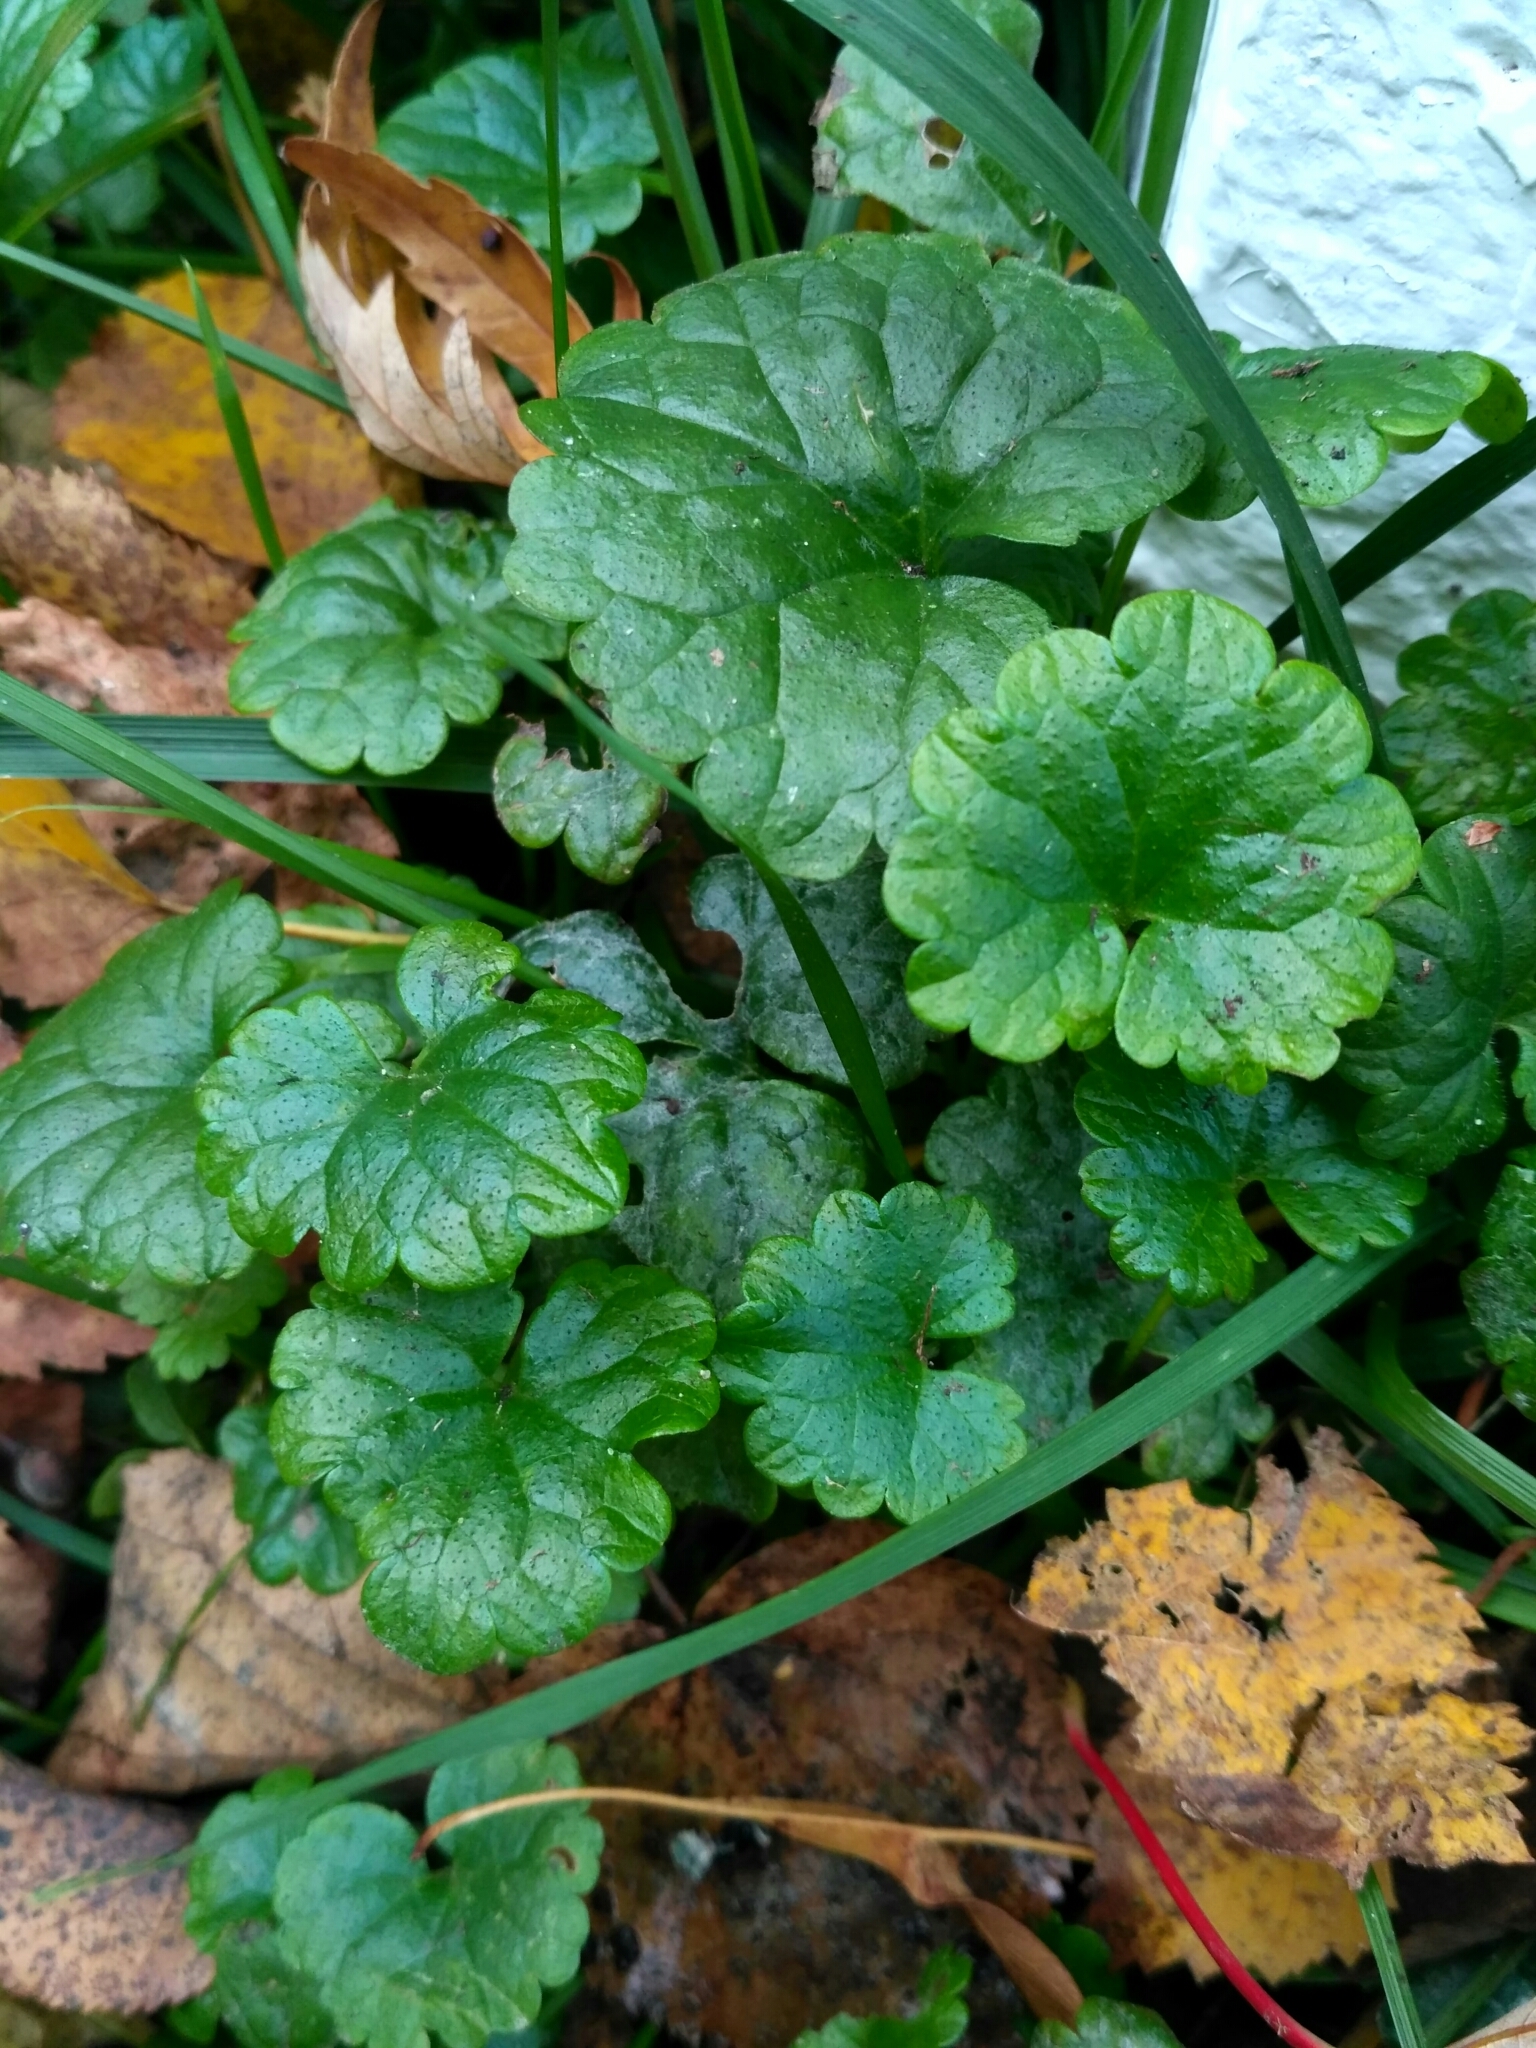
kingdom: Plantae
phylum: Tracheophyta
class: Magnoliopsida
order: Lamiales
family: Lamiaceae
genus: Glechoma
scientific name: Glechoma hederacea
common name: Ground ivy
